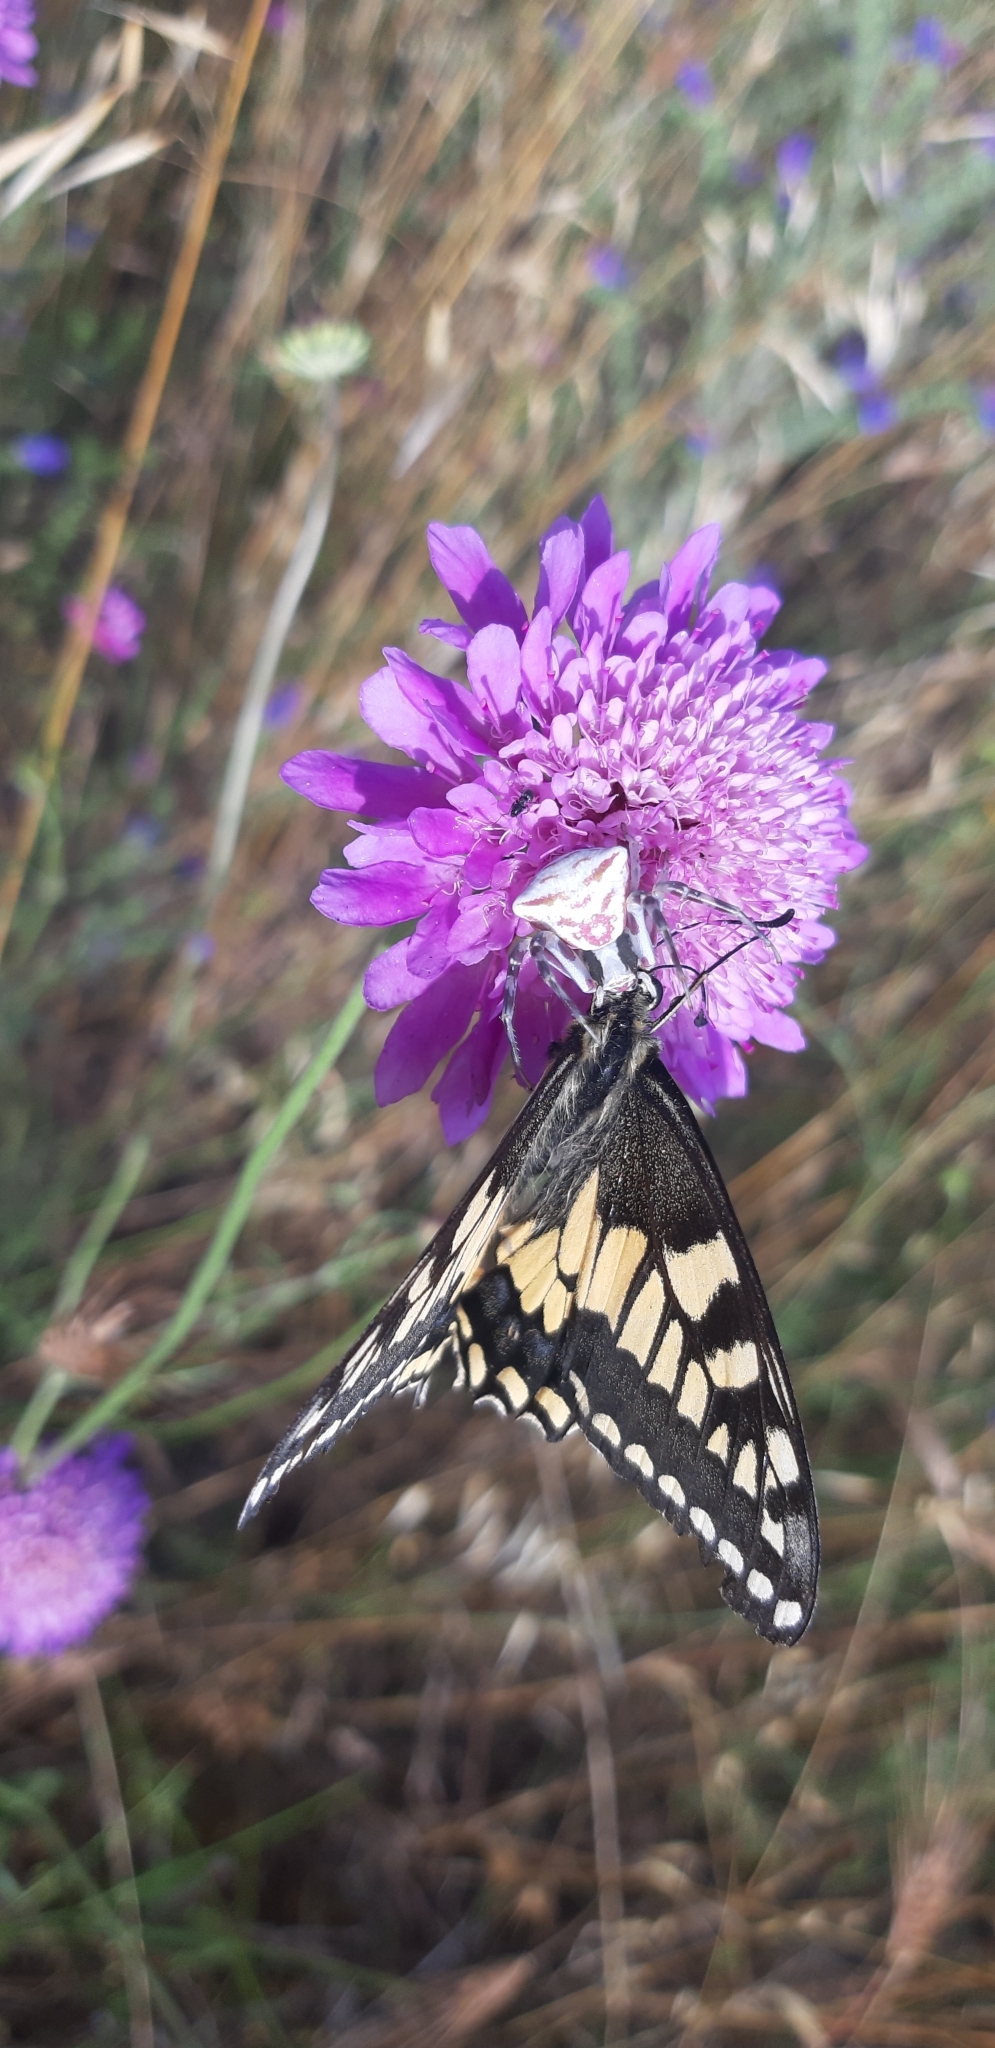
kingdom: Animalia
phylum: Arthropoda
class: Arachnida
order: Araneae
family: Thomisidae
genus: Thomisus
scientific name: Thomisus onustus
